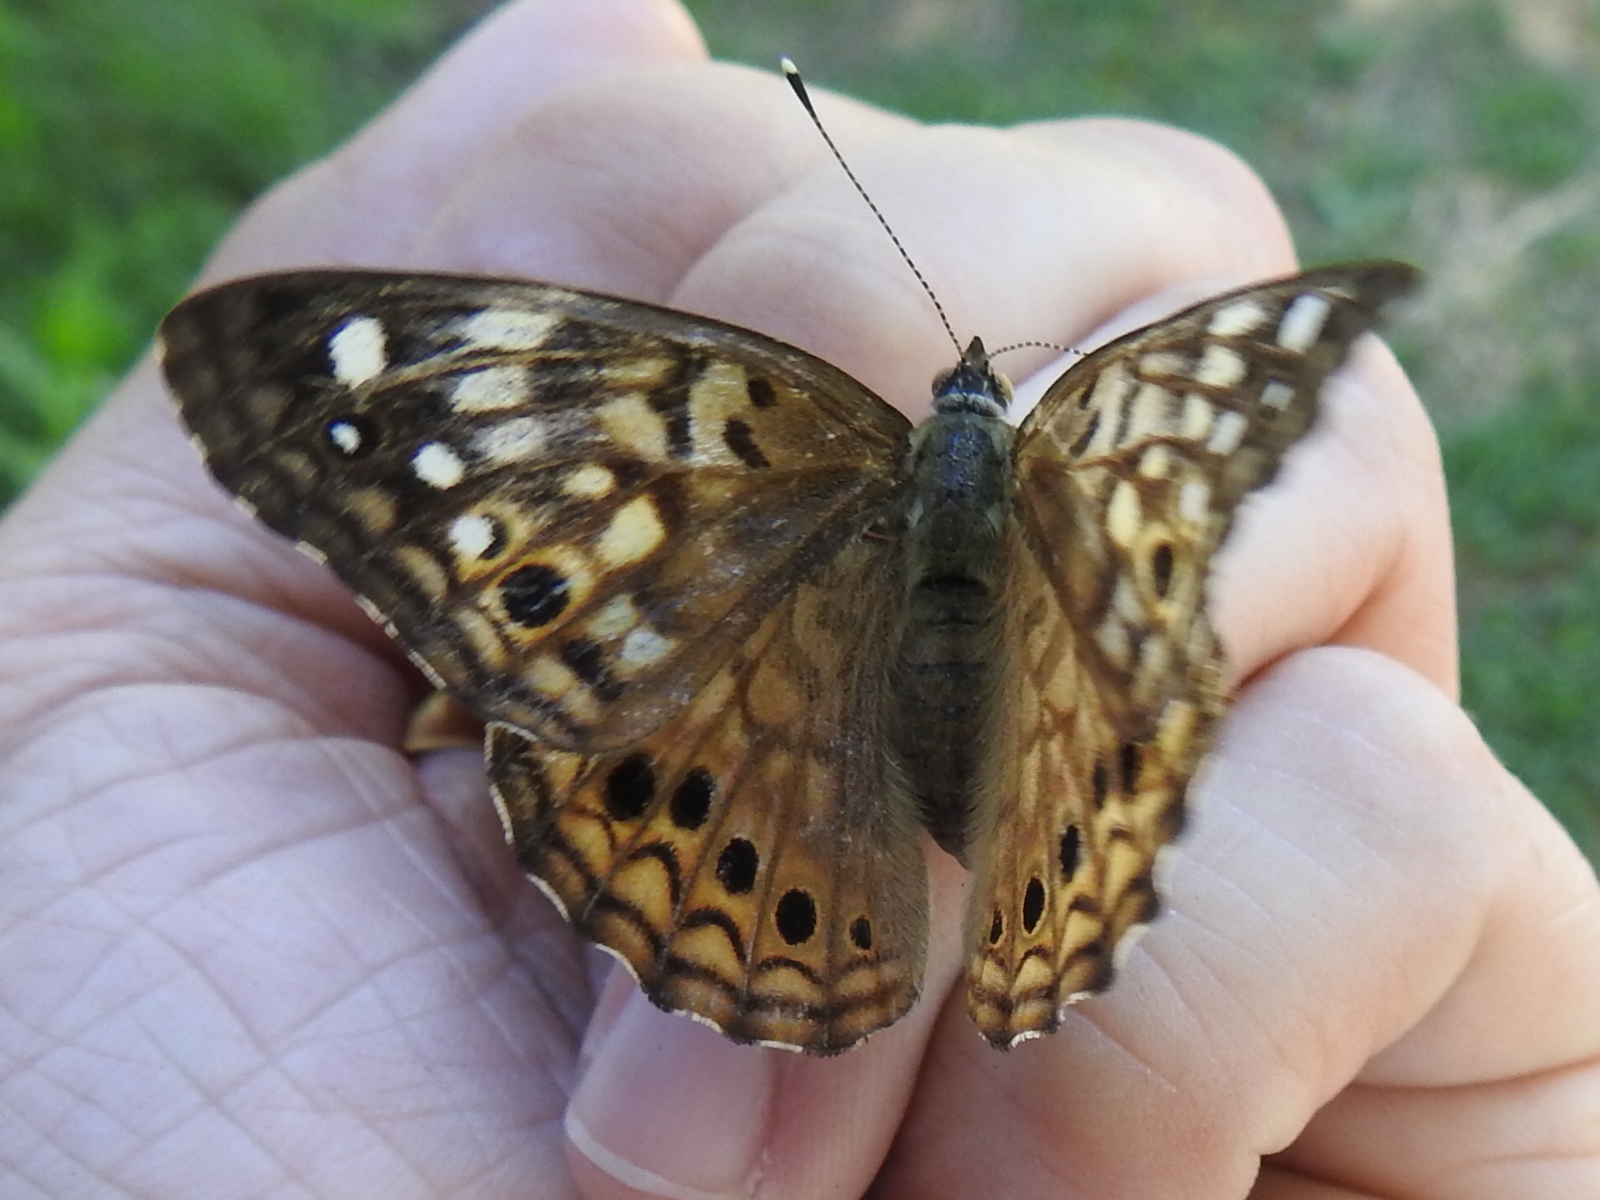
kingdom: Animalia
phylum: Arthropoda
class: Insecta
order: Lepidoptera
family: Nymphalidae
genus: Asterocampa
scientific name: Asterocampa celtis
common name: Hackberry emperor
